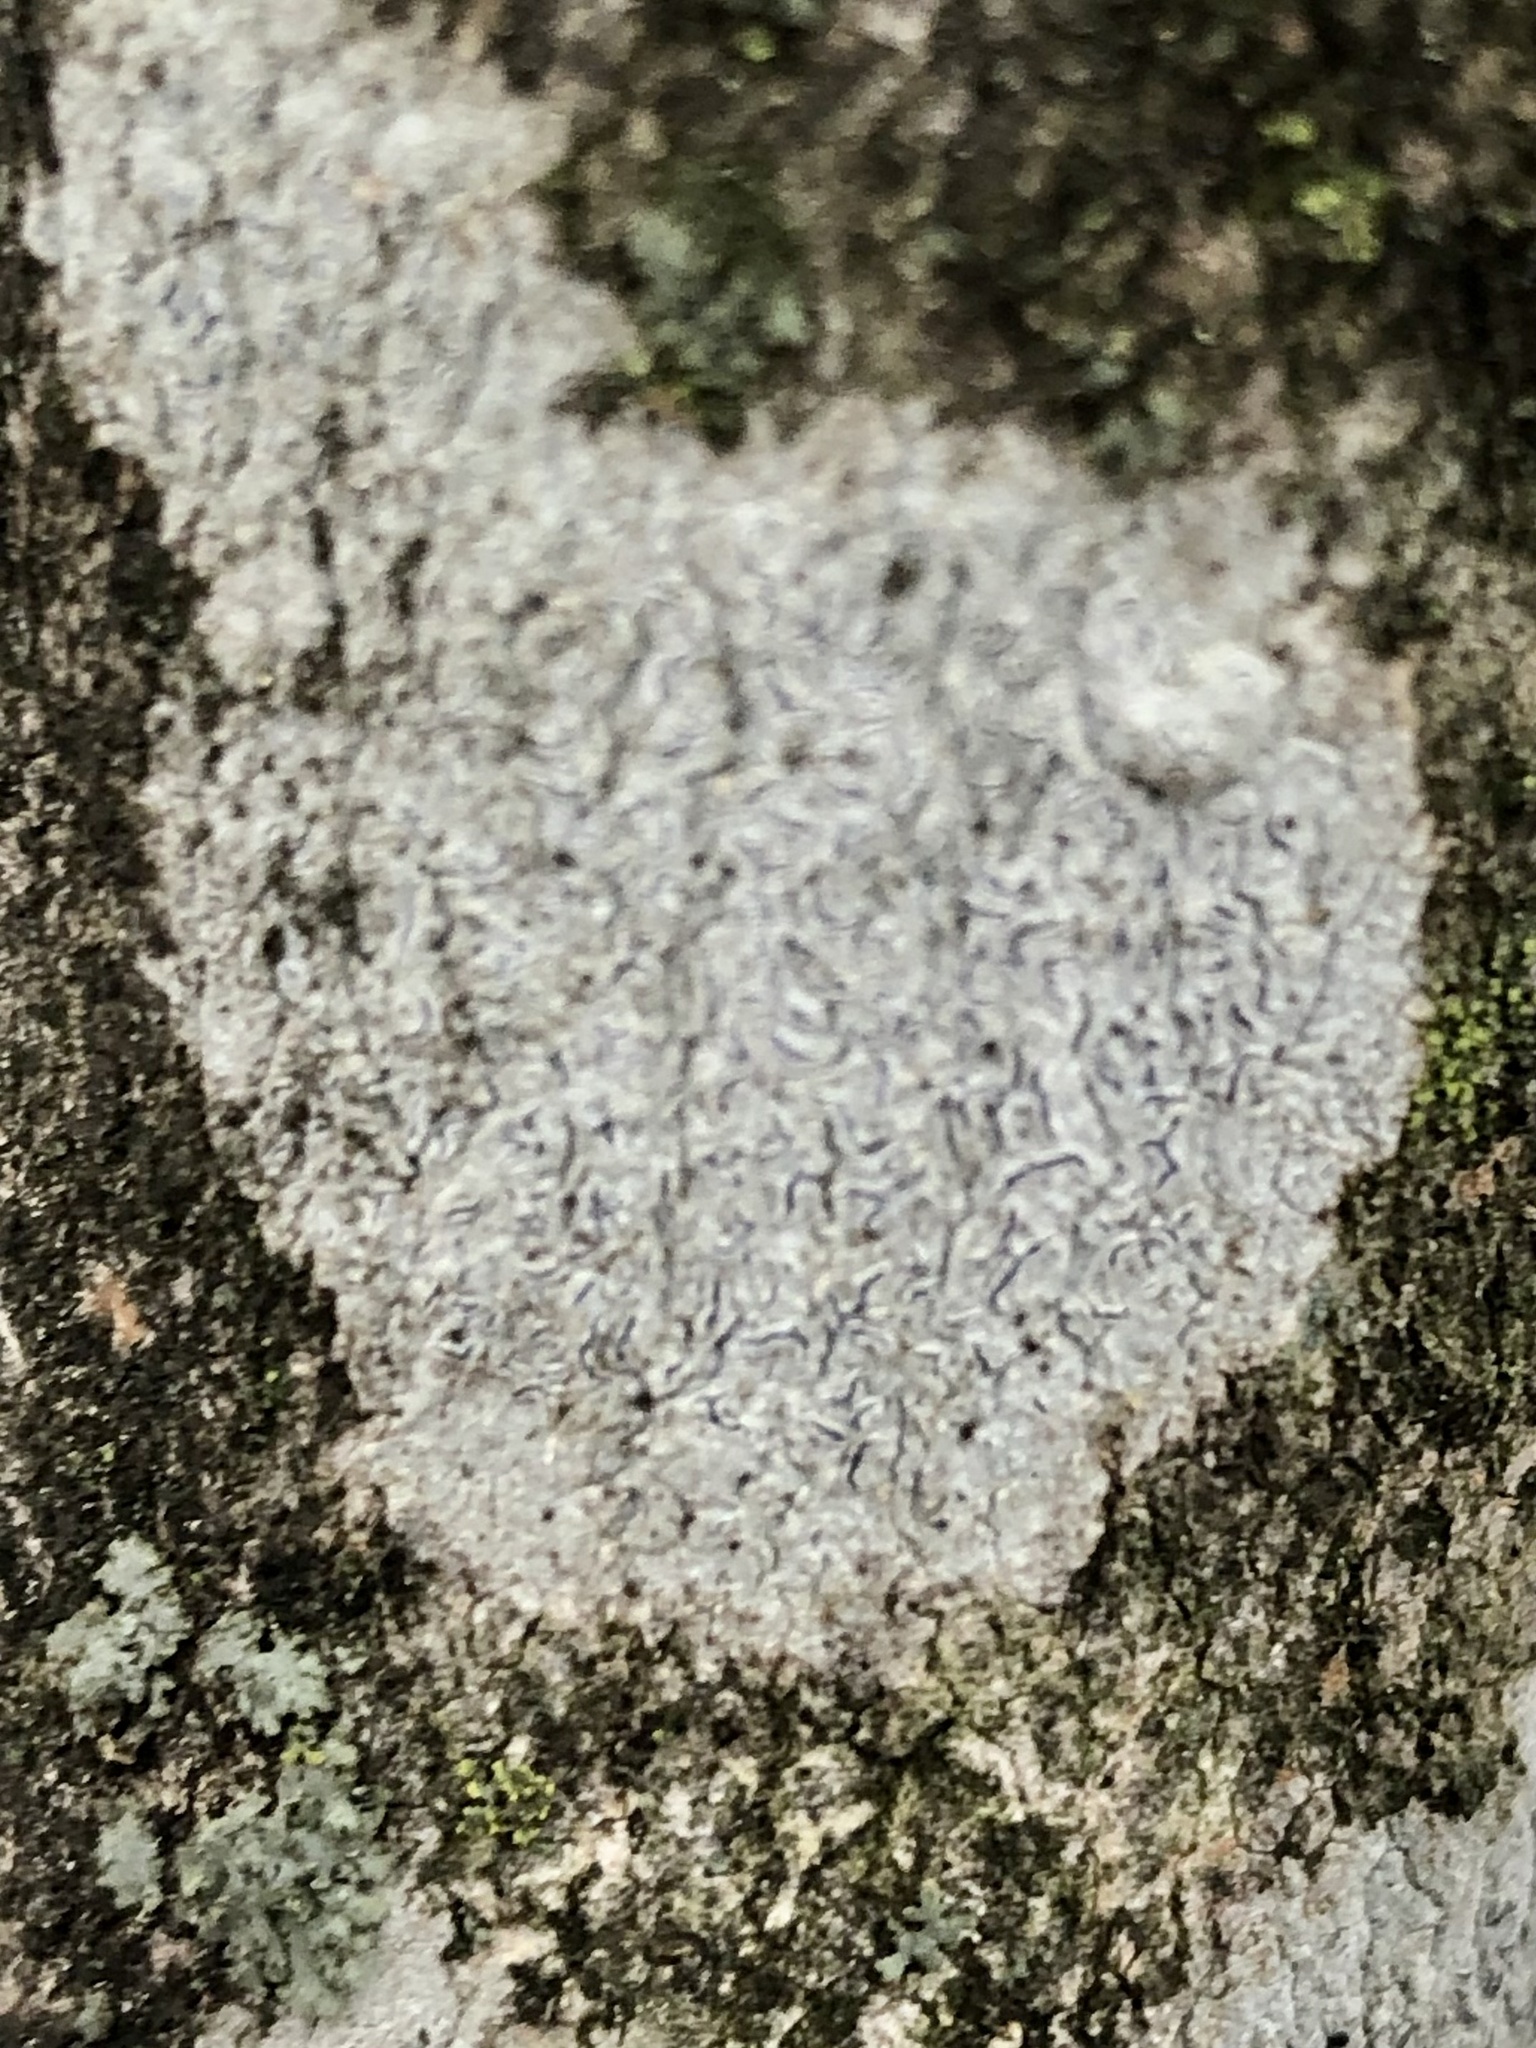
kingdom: Fungi
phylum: Ascomycota
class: Lecanoromycetes
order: Ostropales
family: Graphidaceae
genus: Graphis
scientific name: Graphis scripta
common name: Script lichen
